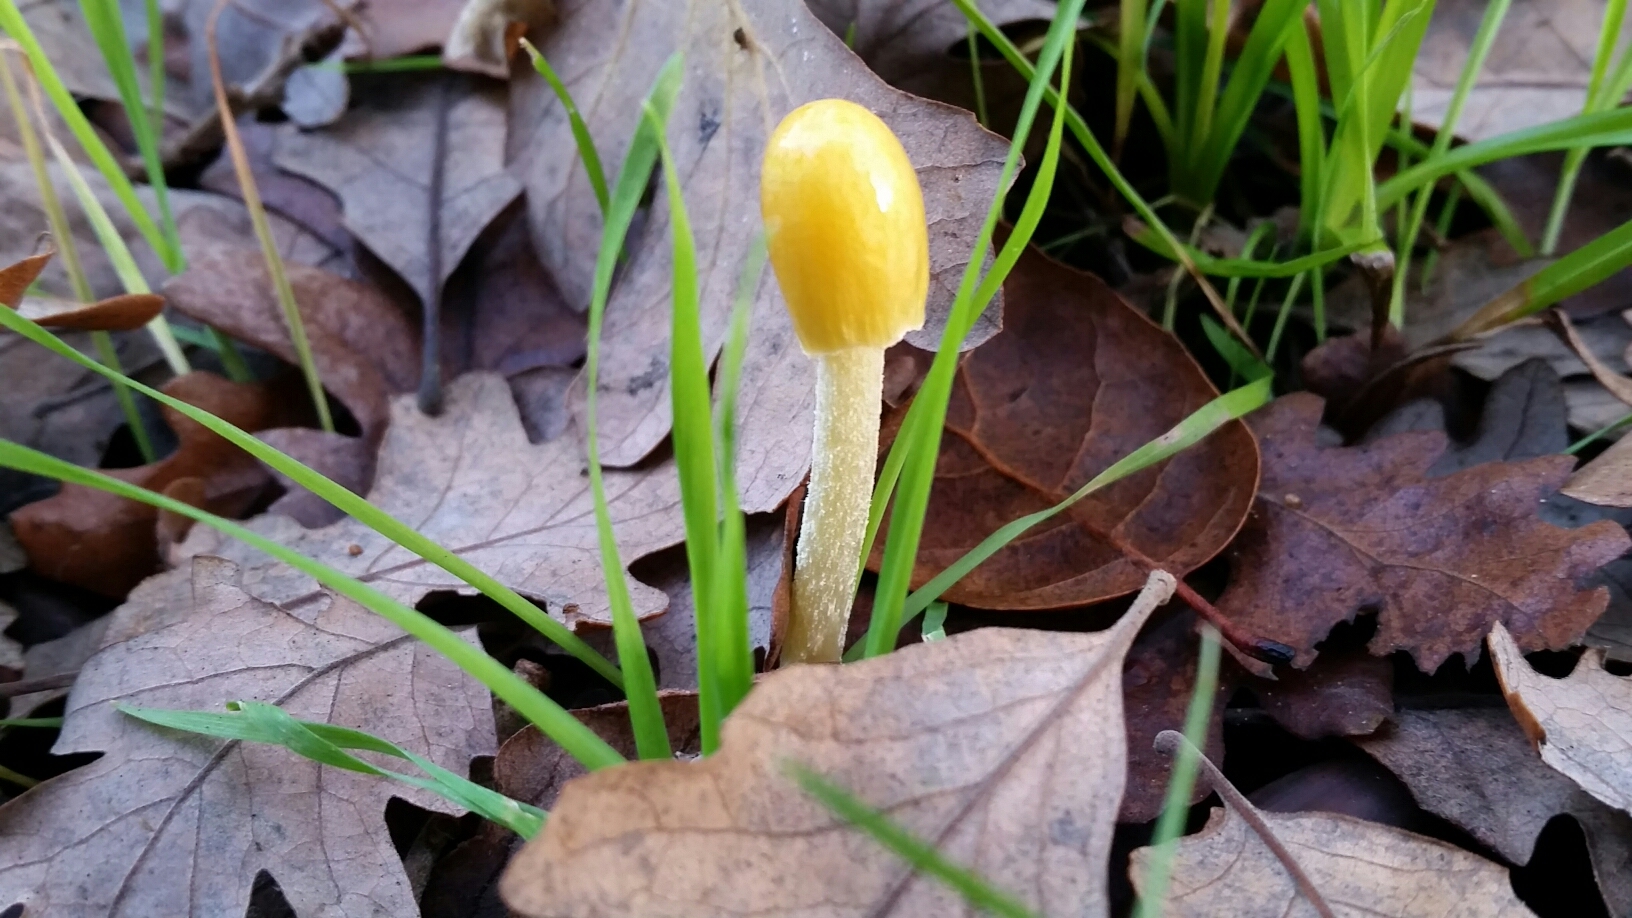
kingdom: Fungi
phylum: Basidiomycota
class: Agaricomycetes
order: Agaricales
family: Bolbitiaceae
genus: Bolbitius
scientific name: Bolbitius titubans
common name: Yellow fieldcap
